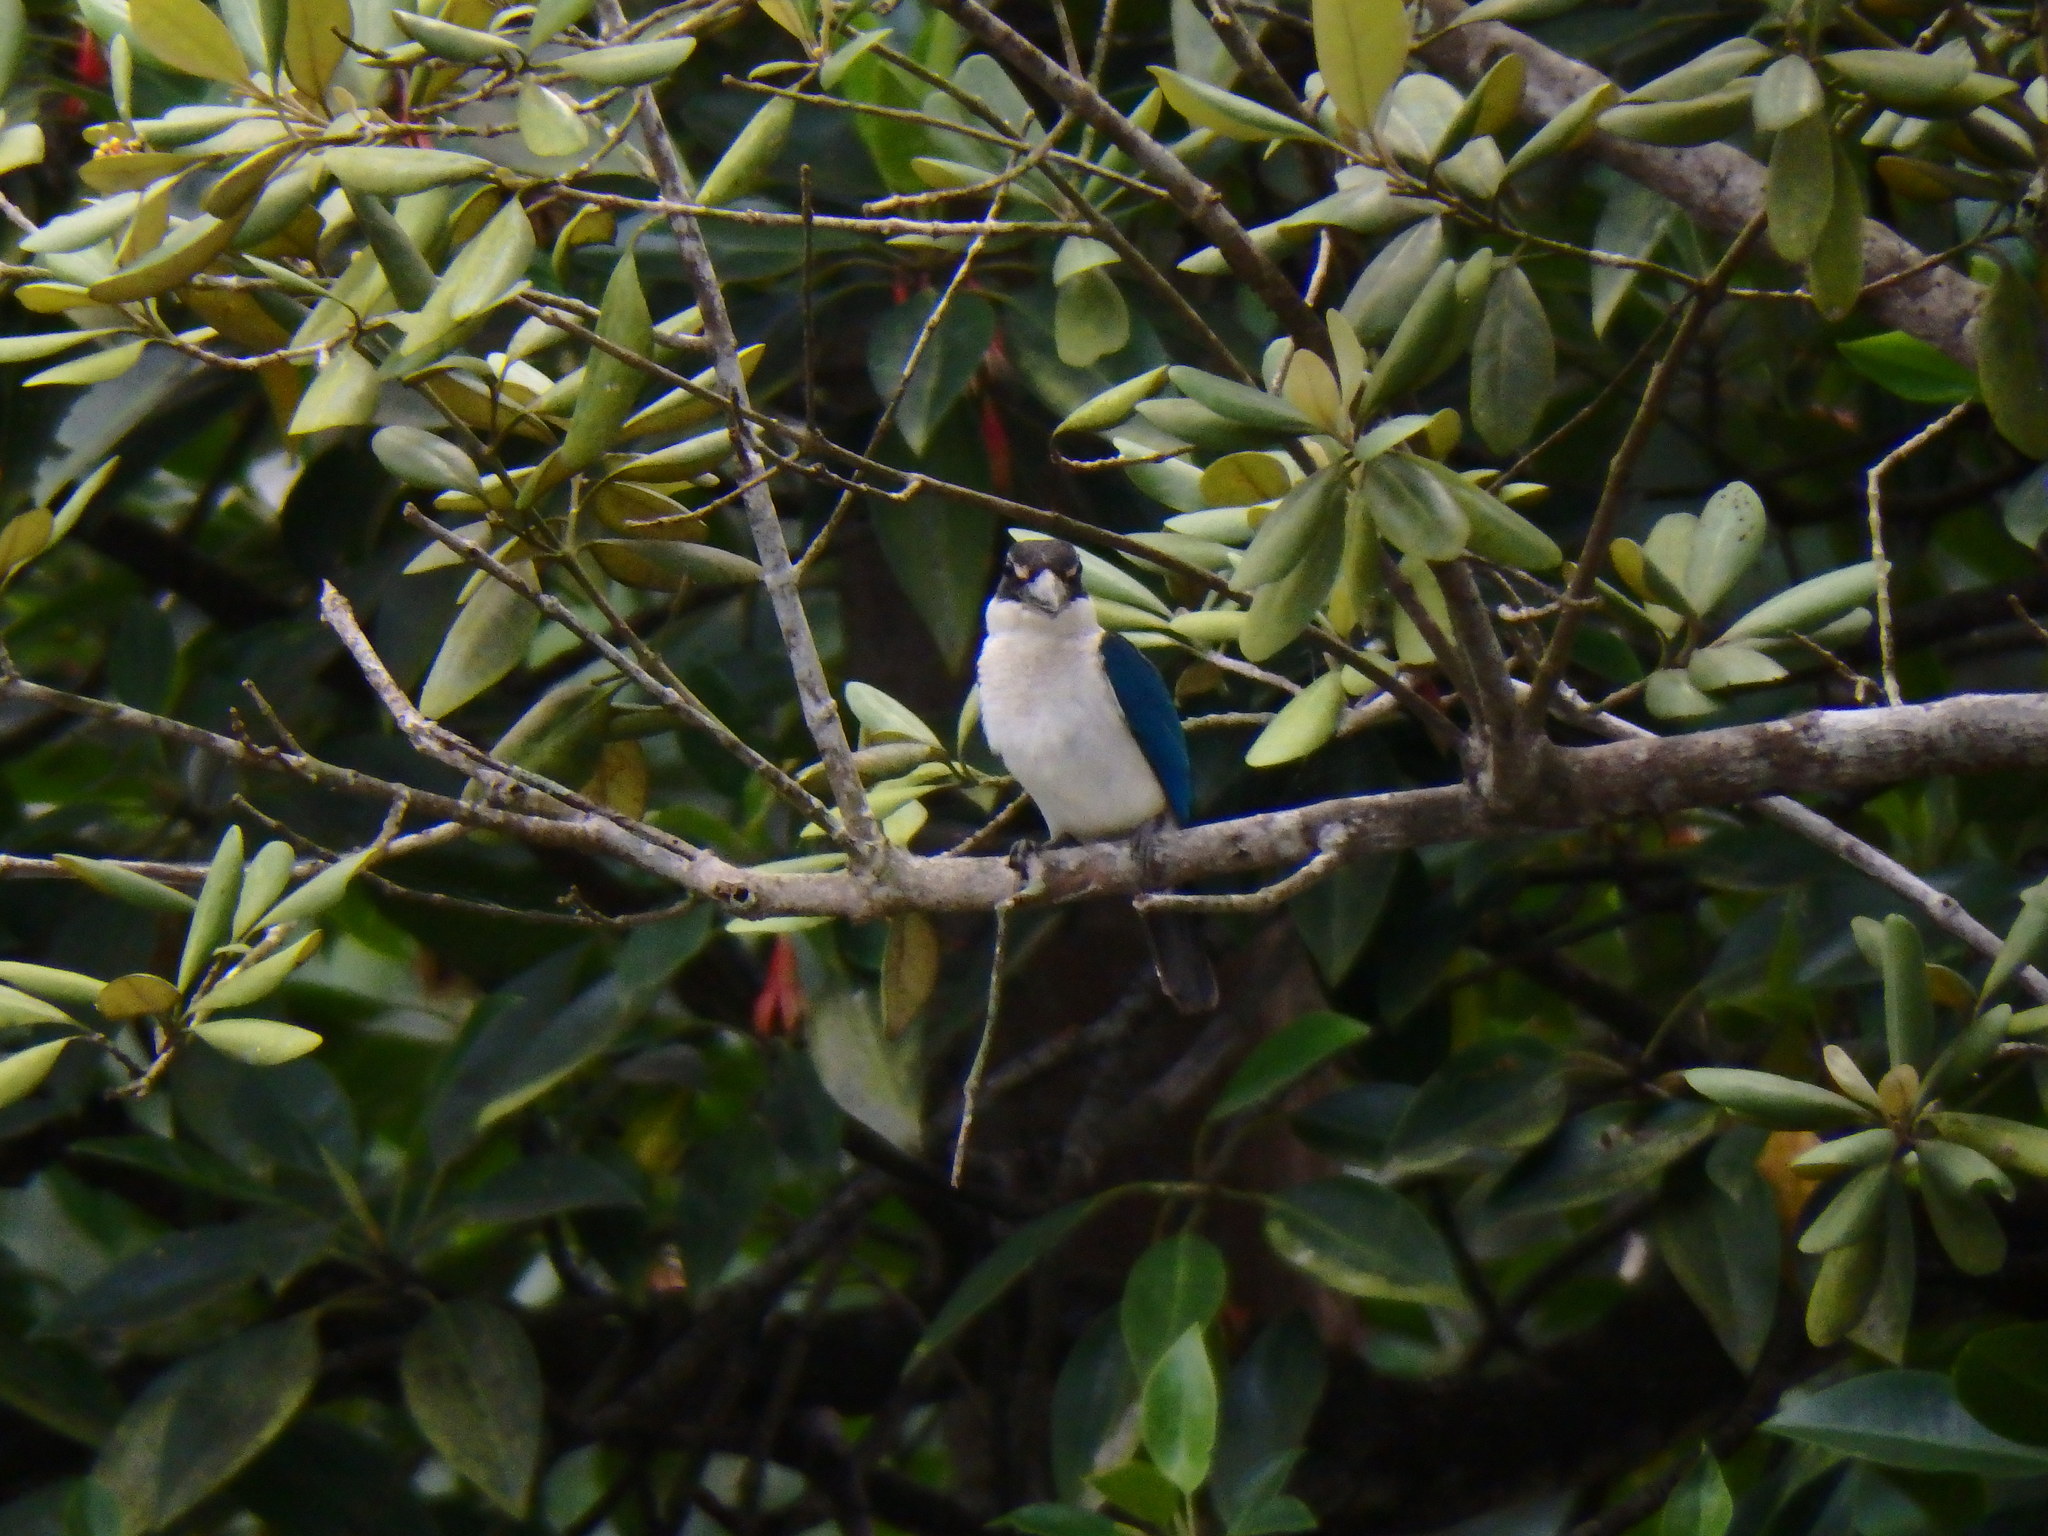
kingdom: Animalia
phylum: Chordata
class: Aves
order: Coraciiformes
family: Alcedinidae
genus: Todiramphus
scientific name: Todiramphus chloris
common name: Collared kingfisher
